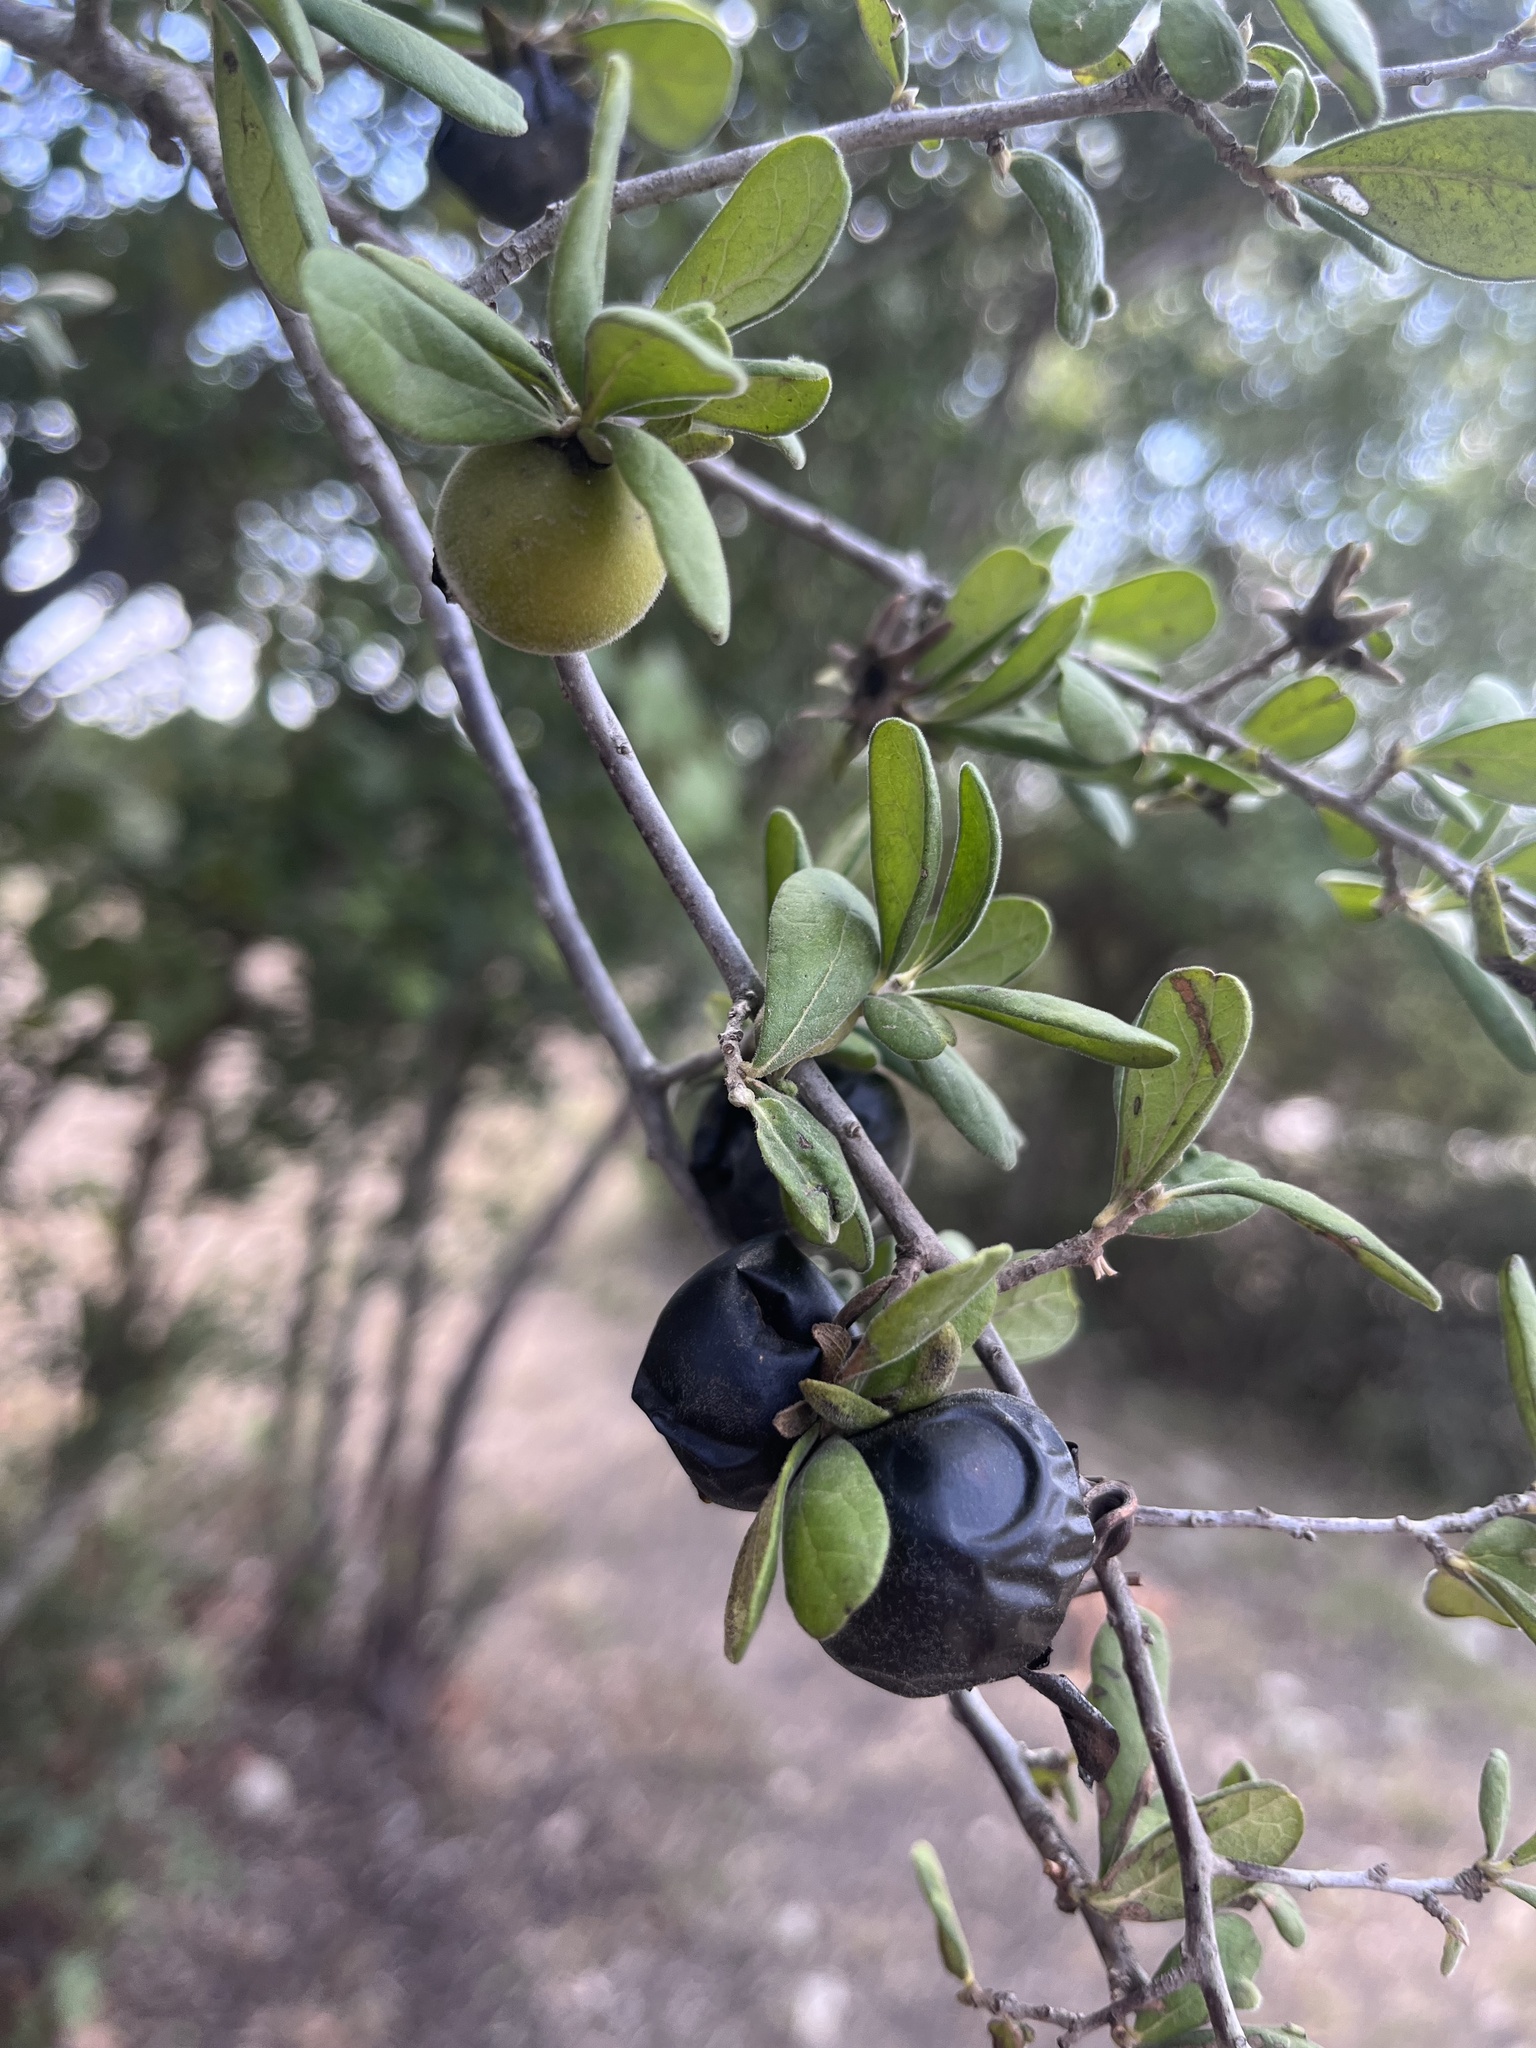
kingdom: Plantae
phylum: Tracheophyta
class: Magnoliopsida
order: Ericales
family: Ebenaceae
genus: Diospyros
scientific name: Diospyros texana
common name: Texas persimmon
